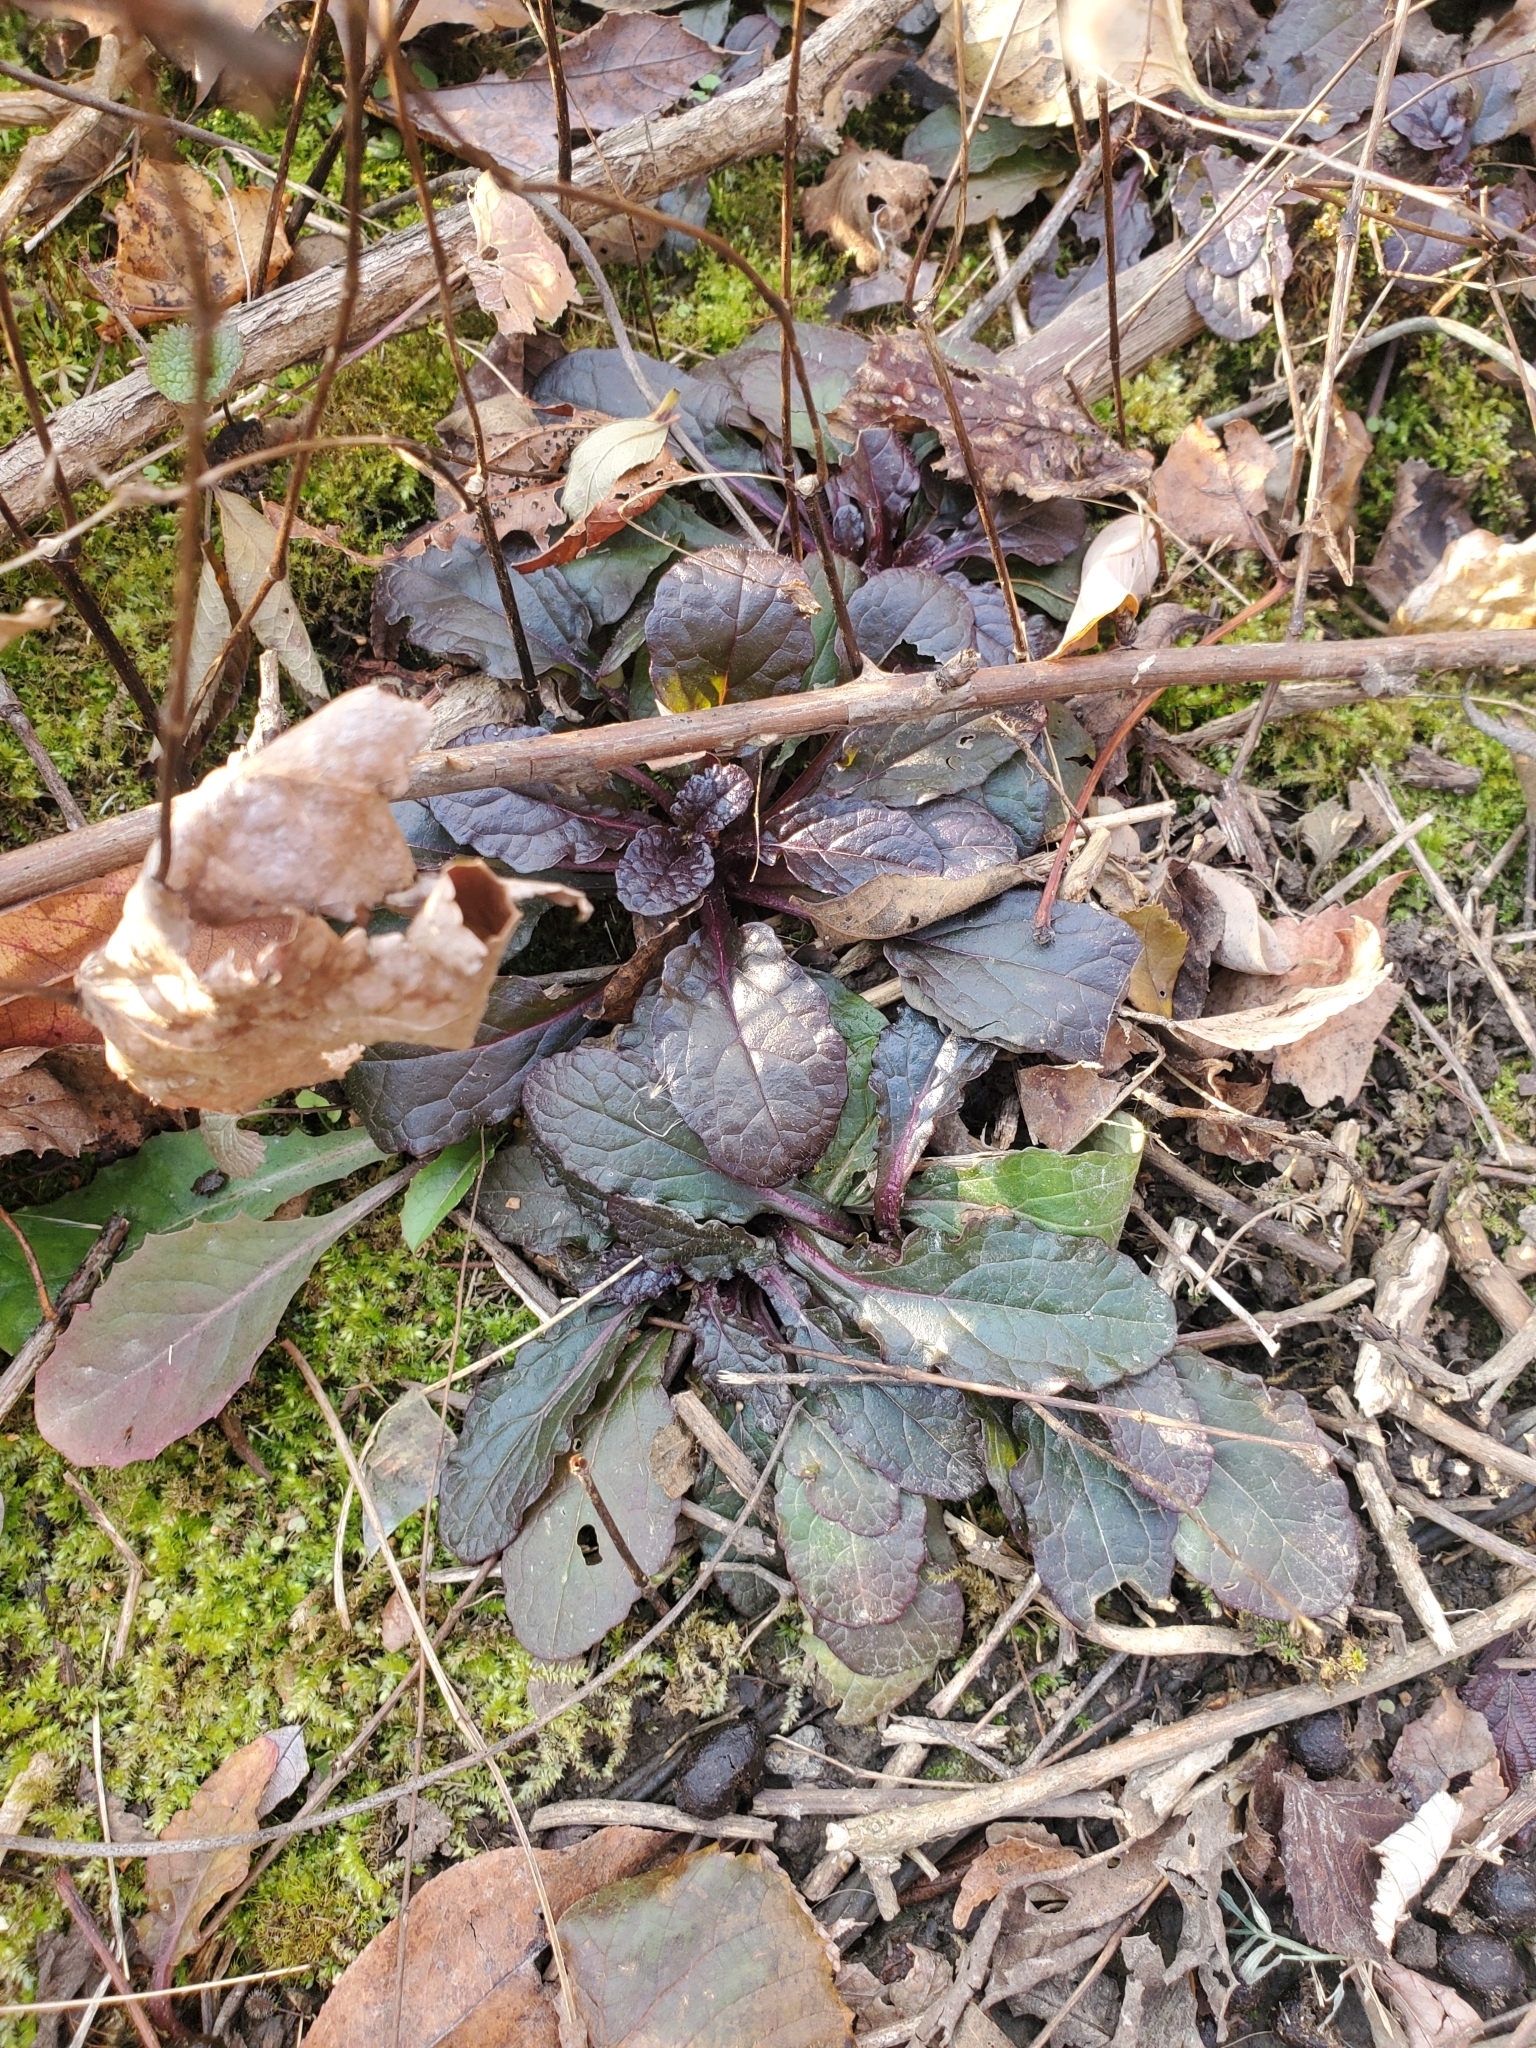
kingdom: Plantae
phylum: Tracheophyta
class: Magnoliopsida
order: Lamiales
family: Lamiaceae
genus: Ajuga
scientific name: Ajuga reptans
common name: Bugle
